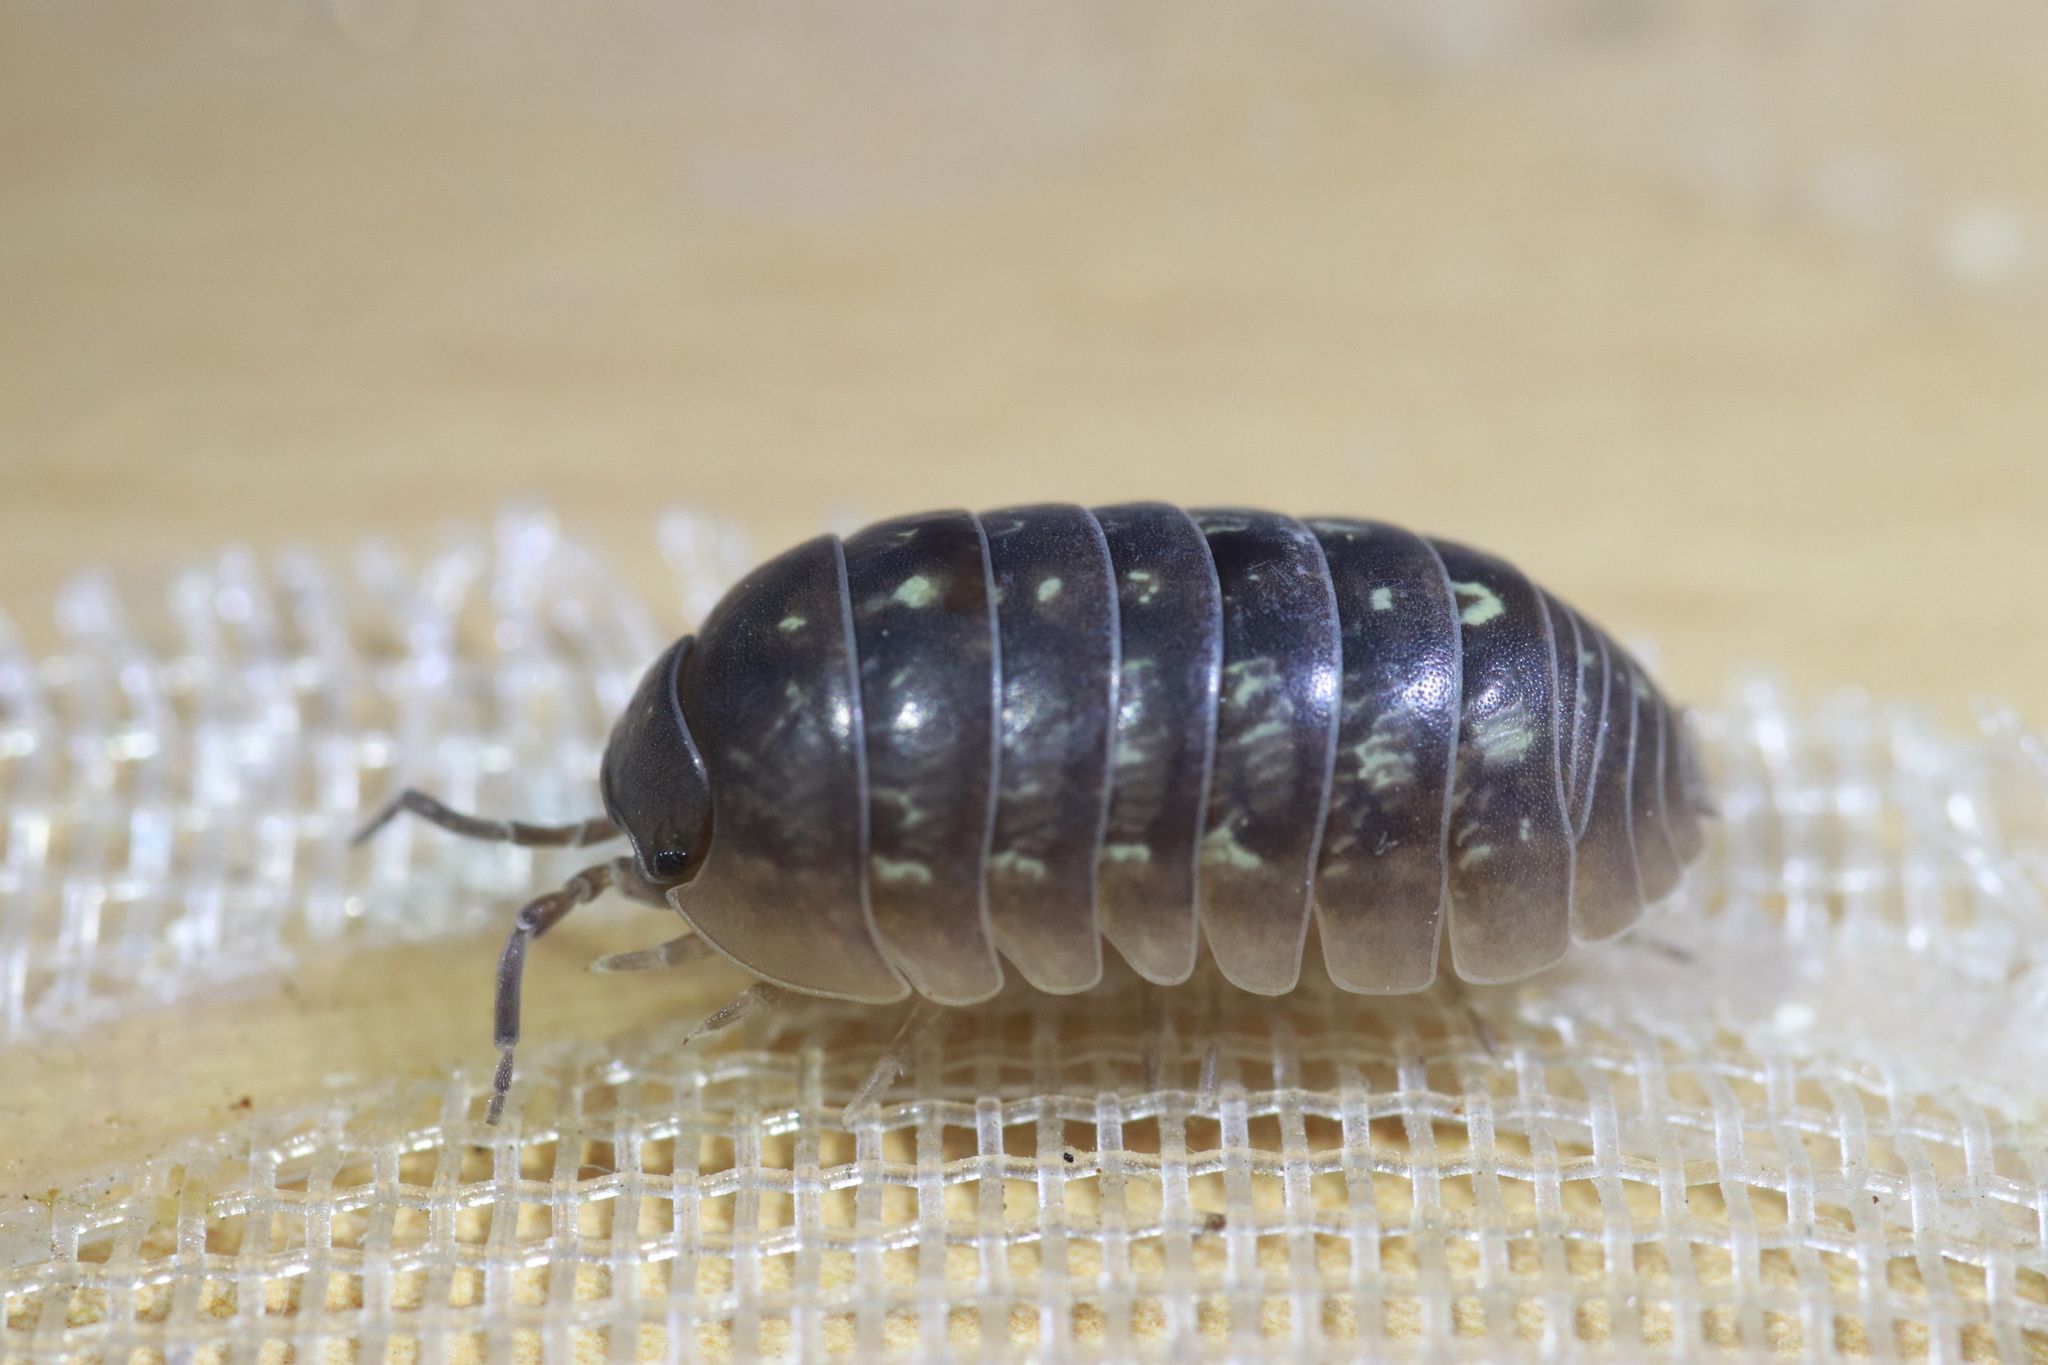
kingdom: Animalia
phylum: Arthropoda
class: Malacostraca
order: Isopoda
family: Armadillidiidae
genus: Armadillidium
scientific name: Armadillidium vulgare
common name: Common pill woodlouse
